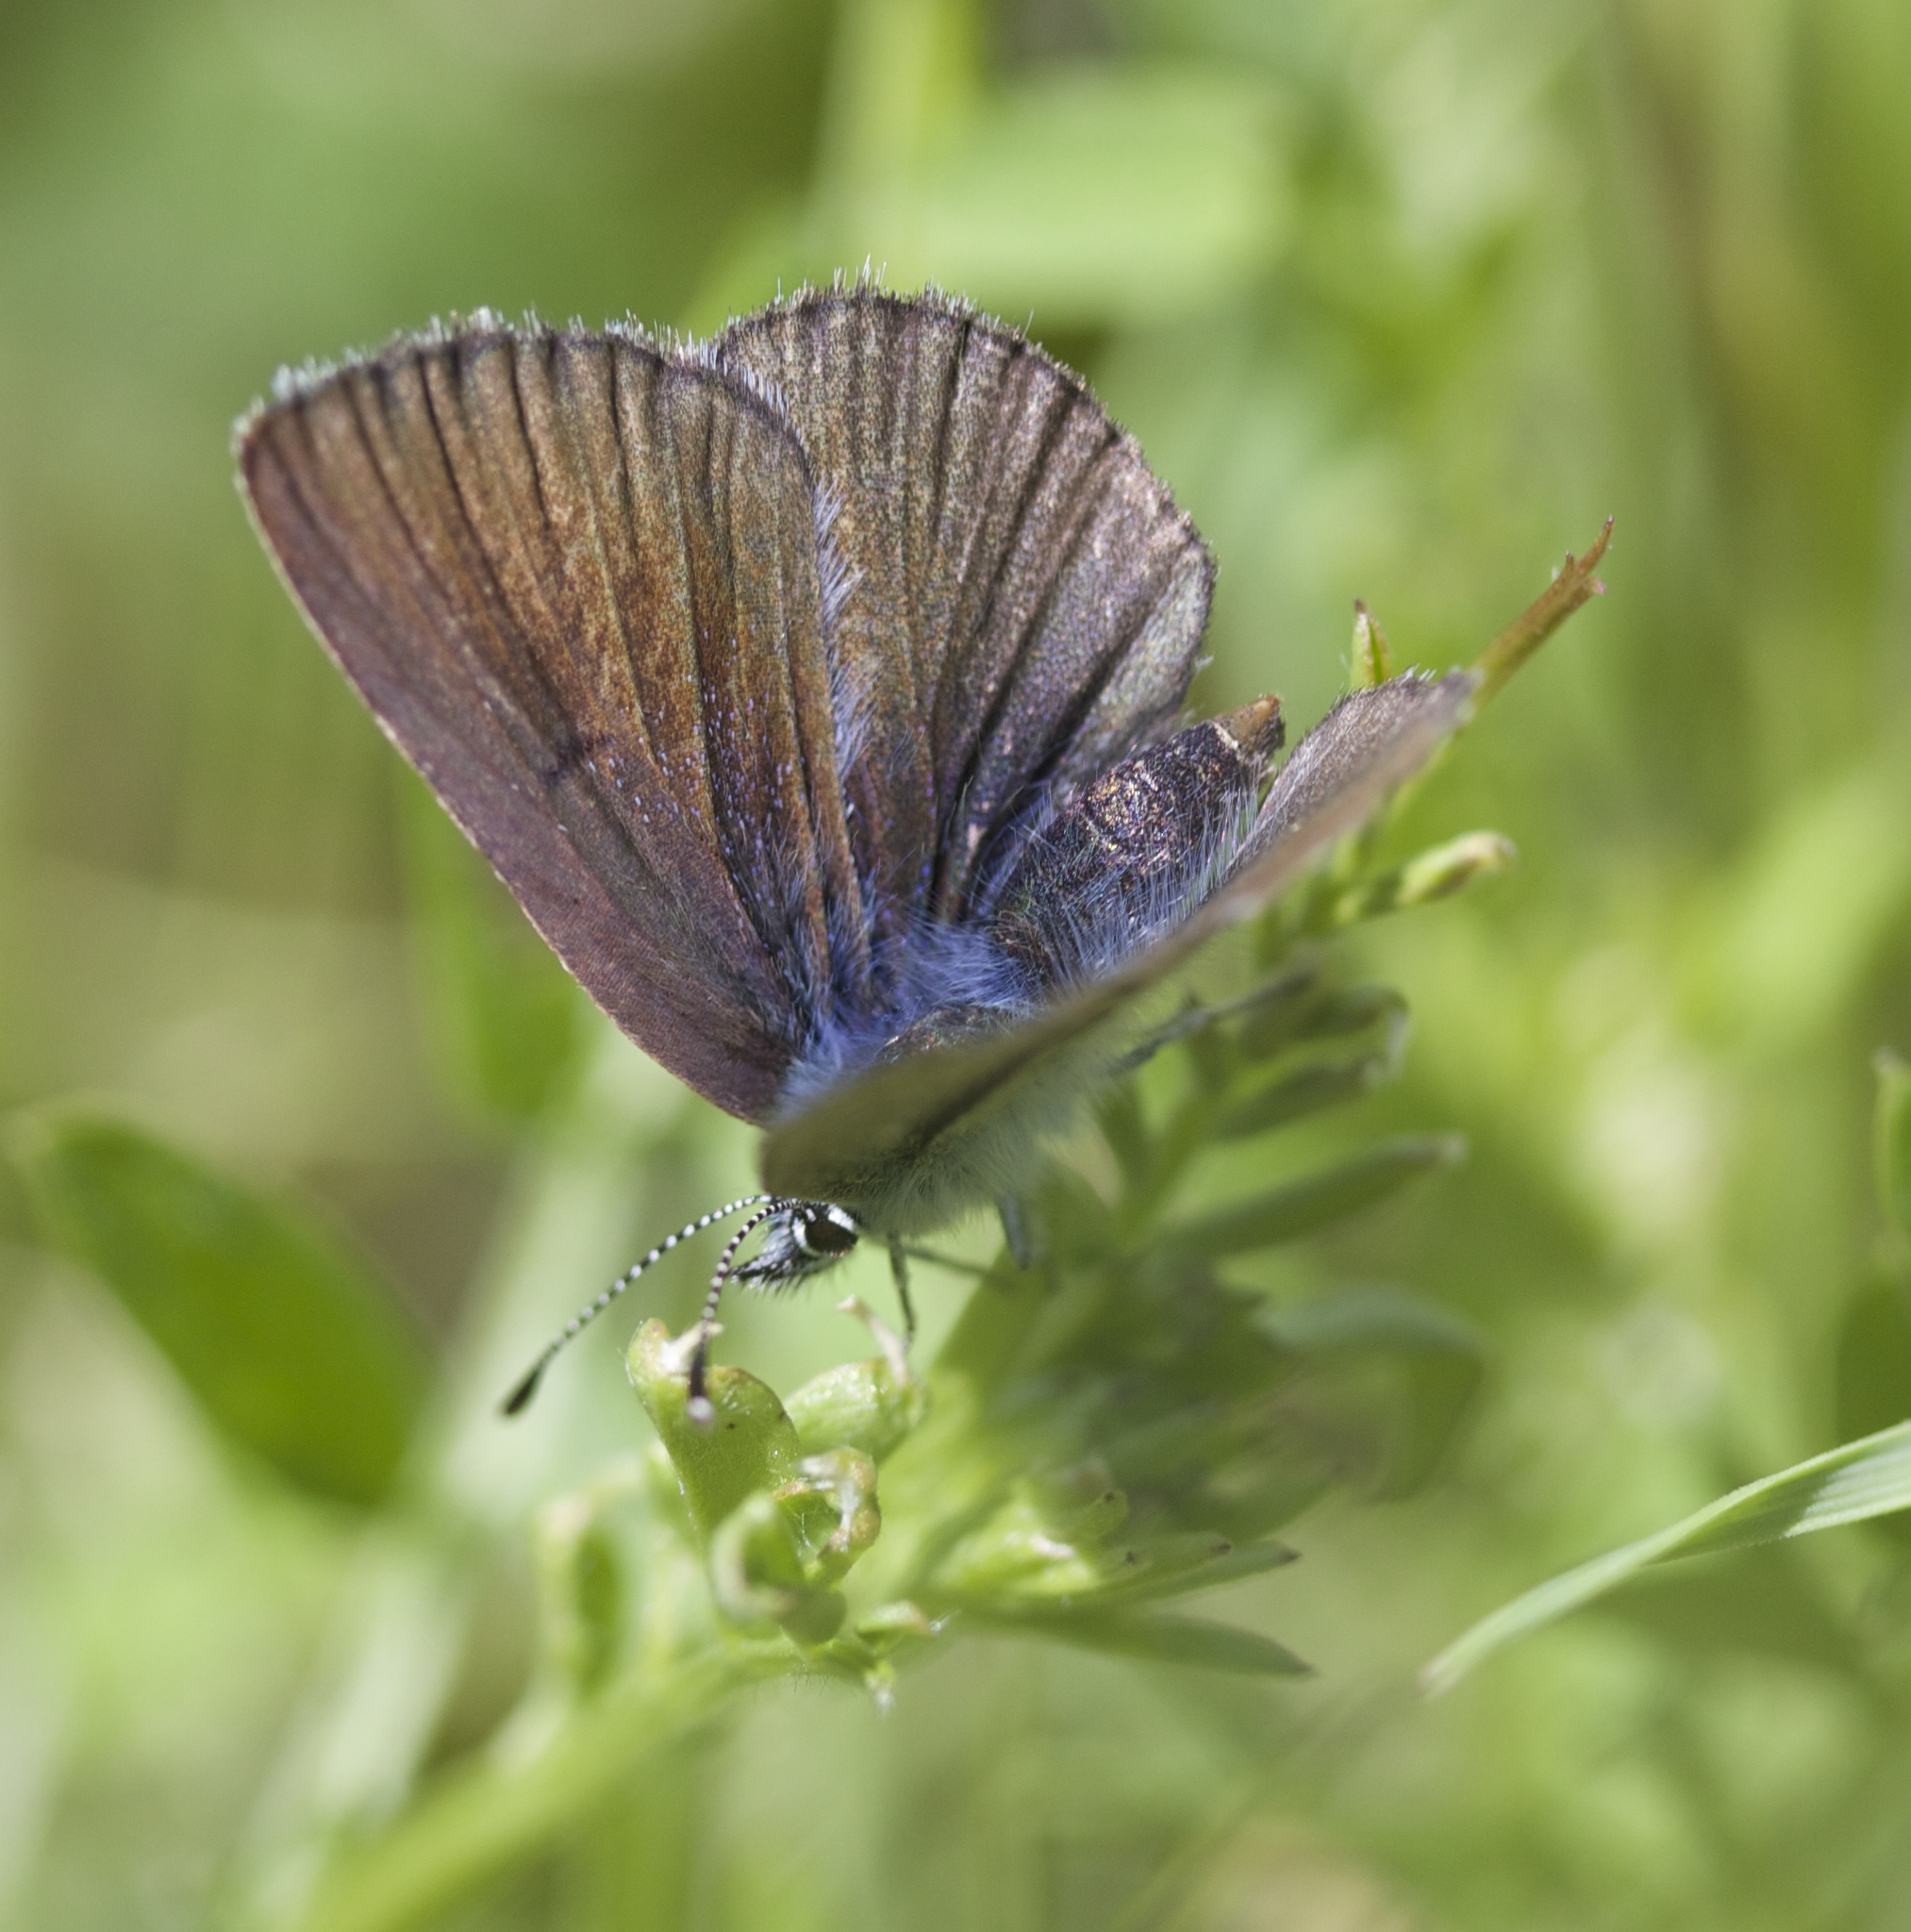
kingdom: Animalia
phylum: Arthropoda
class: Insecta
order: Lepidoptera
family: Lycaenidae
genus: Glaucopsyche
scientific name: Glaucopsyche lygdamus
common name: Silvery blue
